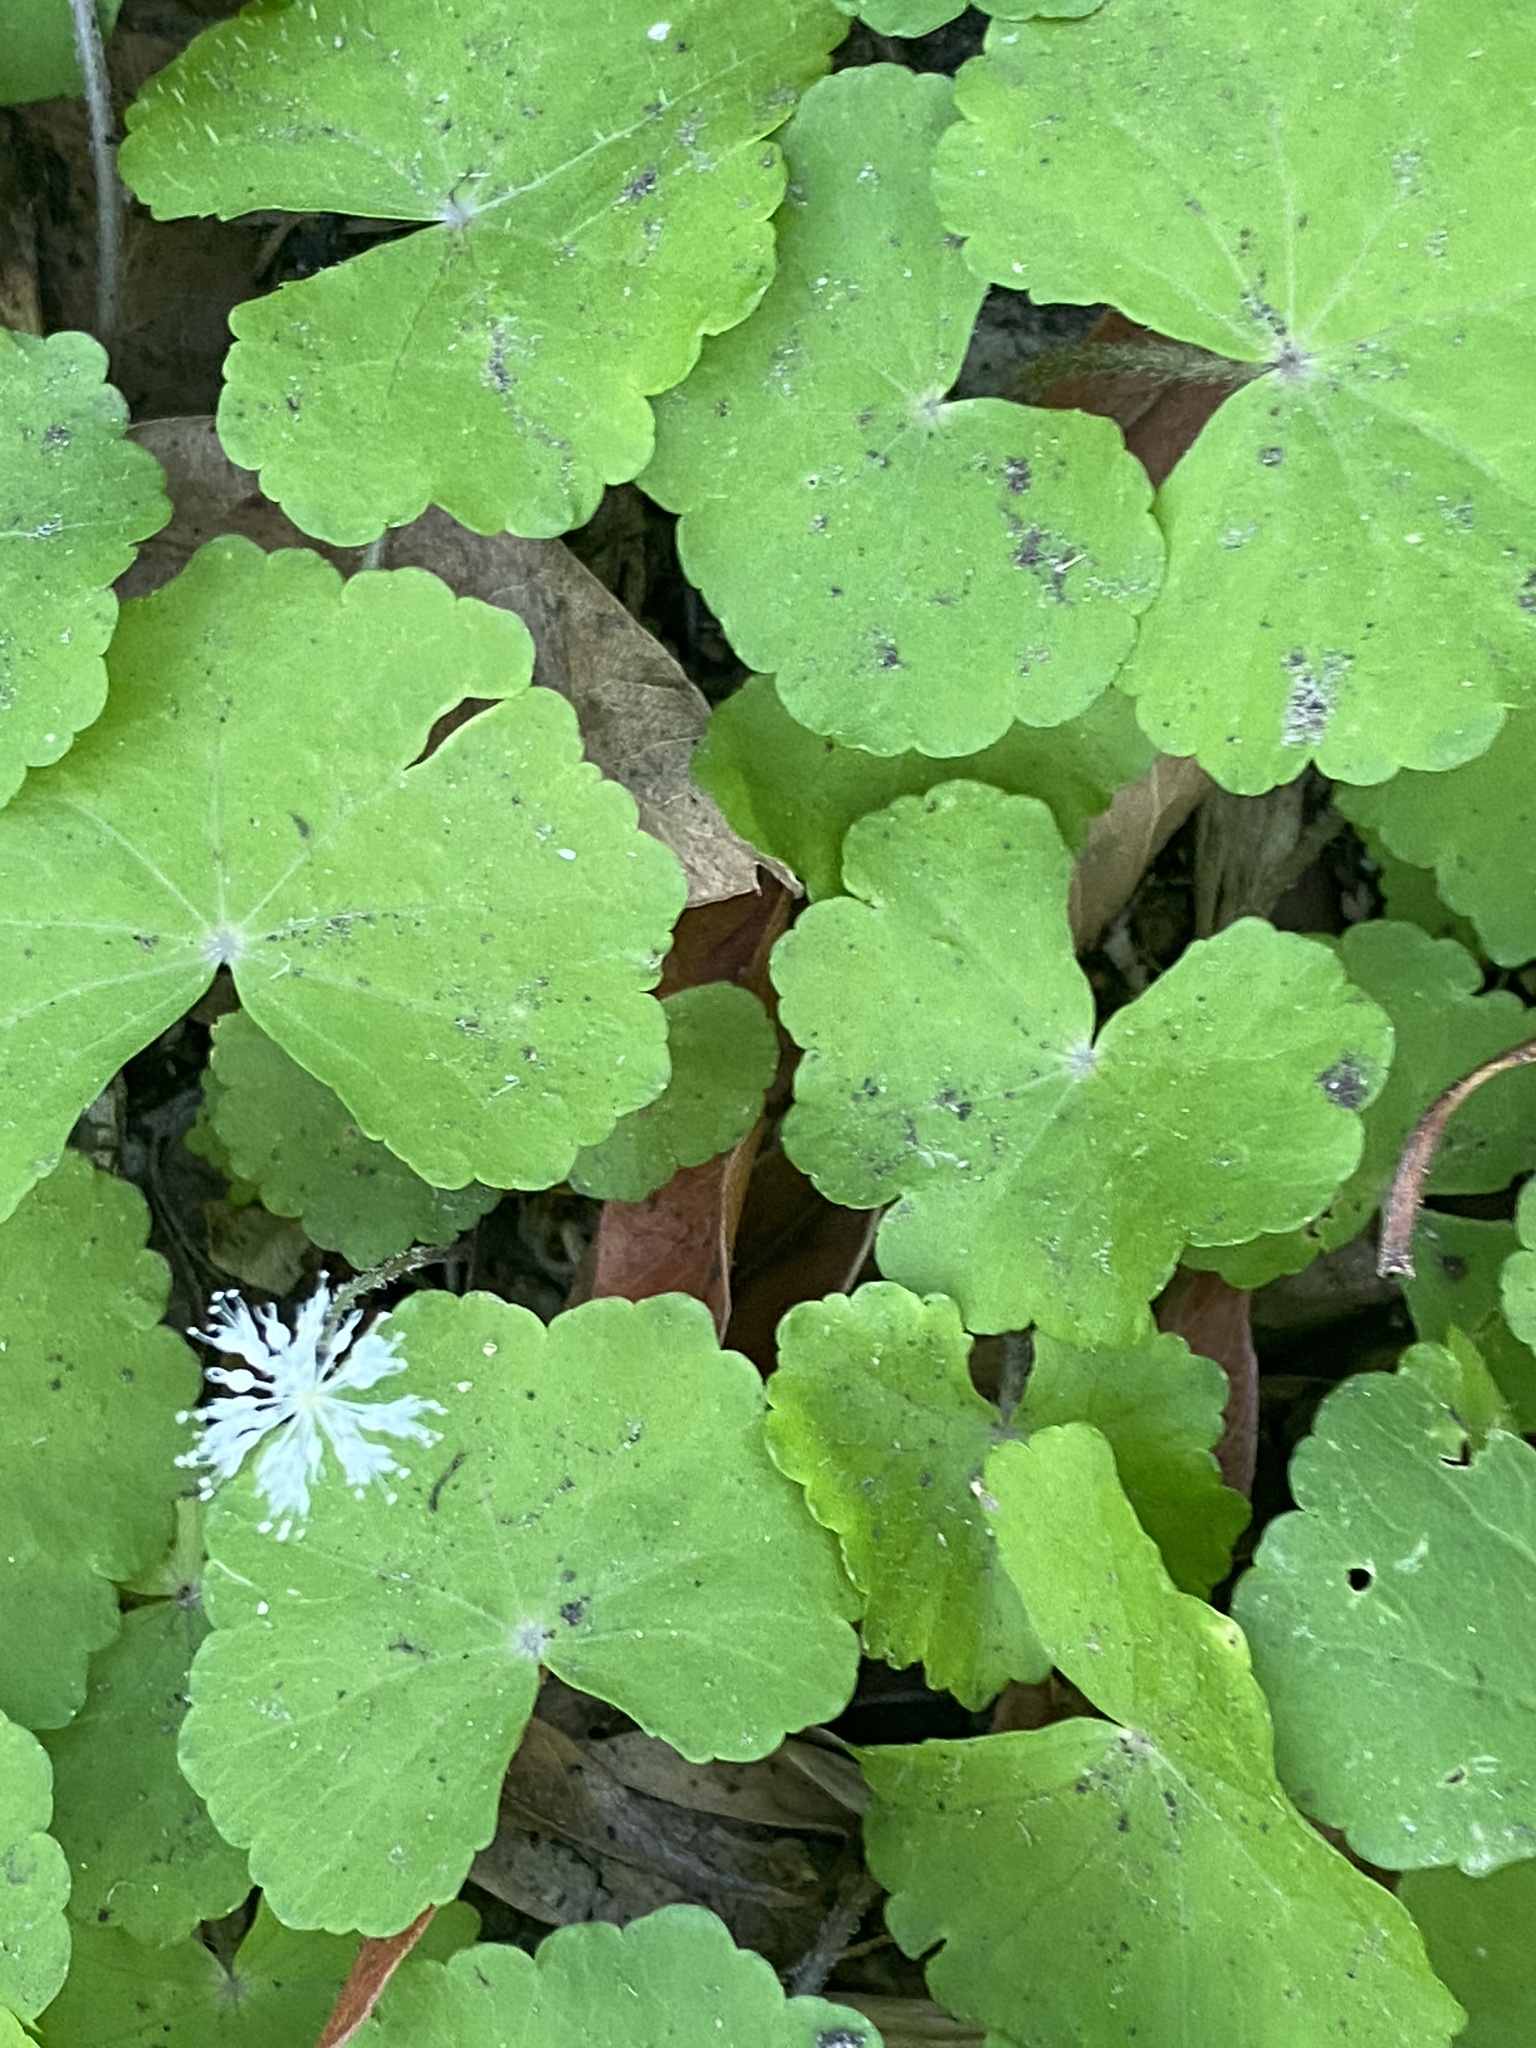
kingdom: Plantae
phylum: Tracheophyta
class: Magnoliopsida
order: Apiales
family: Araliaceae
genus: Hydrocotyle
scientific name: Hydrocotyle leucocephala
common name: Brazilian pennywort
